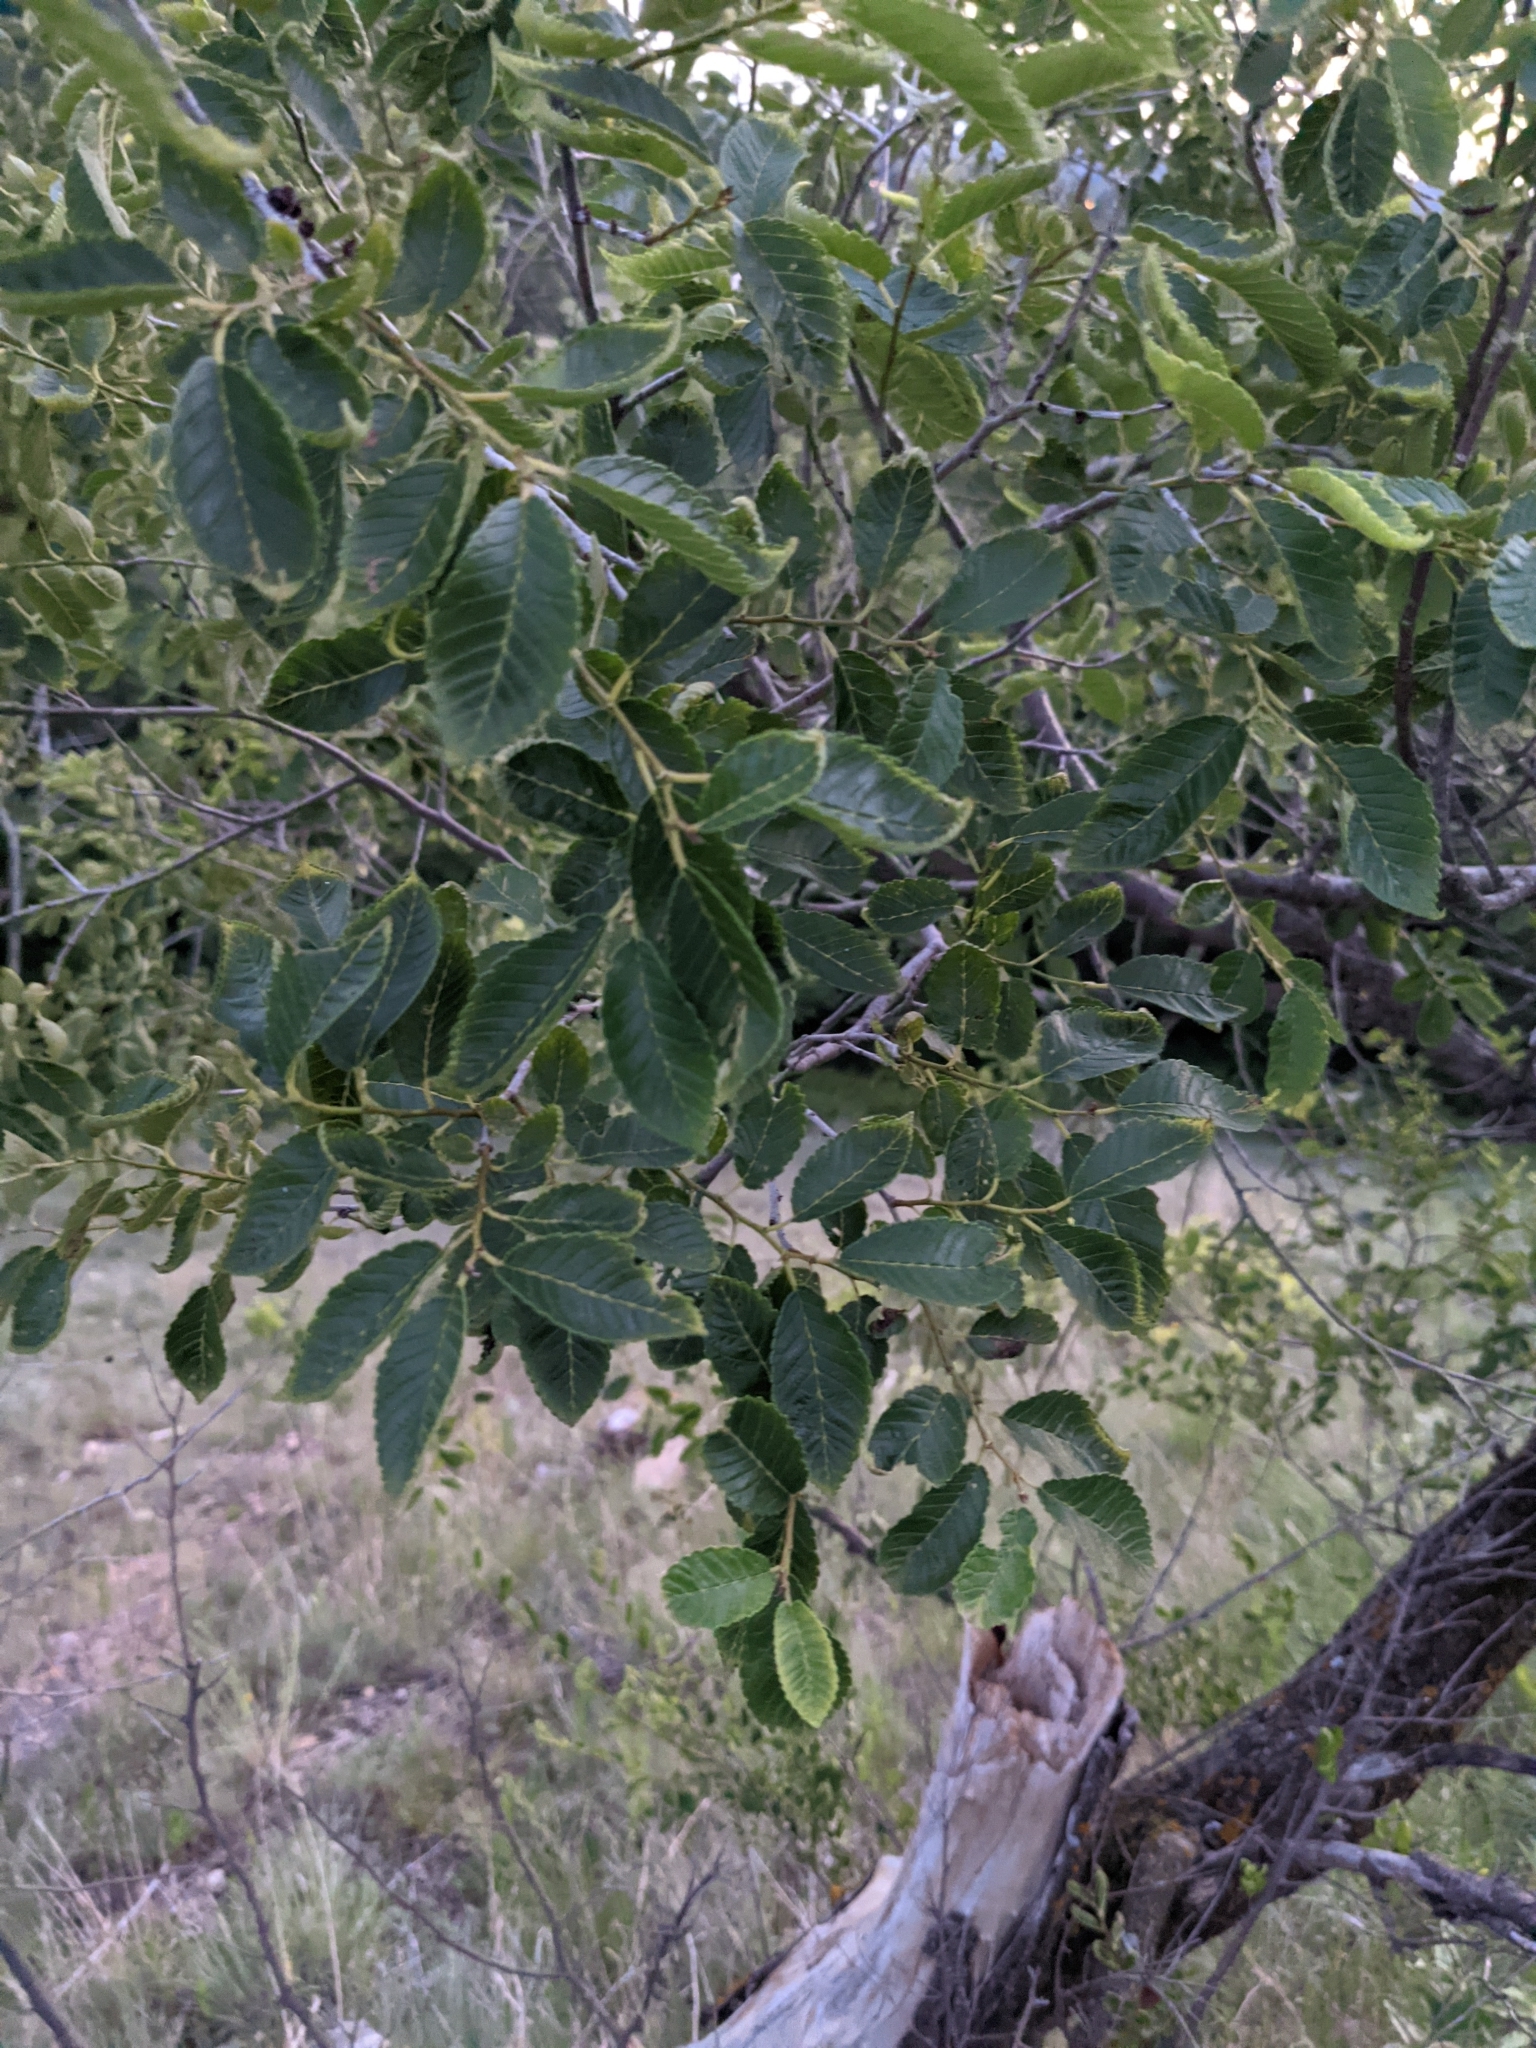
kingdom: Plantae
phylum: Tracheophyta
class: Magnoliopsida
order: Rosales
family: Ulmaceae
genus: Ulmus
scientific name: Ulmus pumila
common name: Siberian elm
